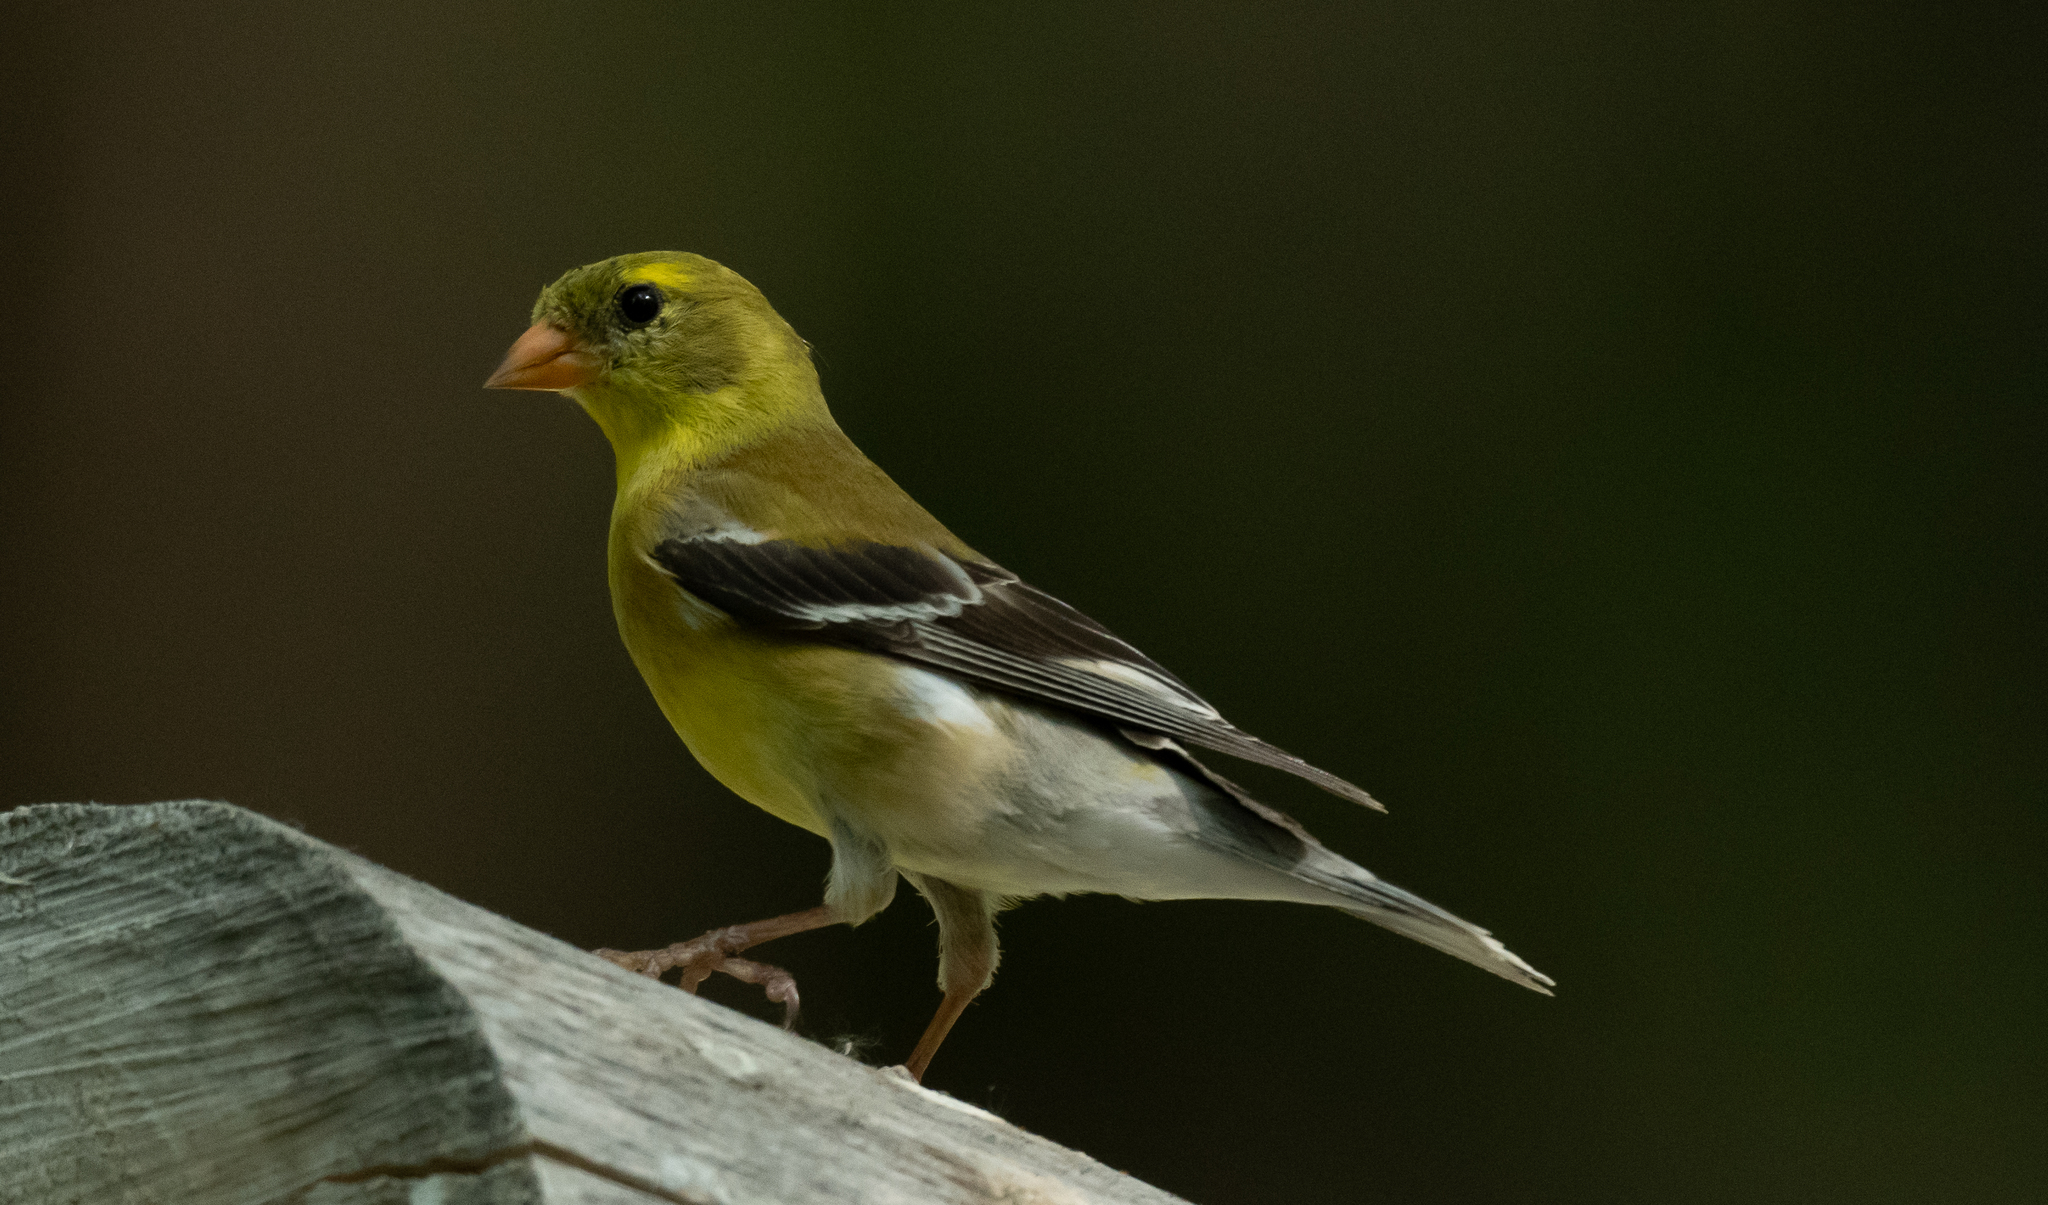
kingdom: Animalia
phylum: Chordata
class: Aves
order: Passeriformes
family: Fringillidae
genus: Spinus
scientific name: Spinus tristis
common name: American goldfinch
